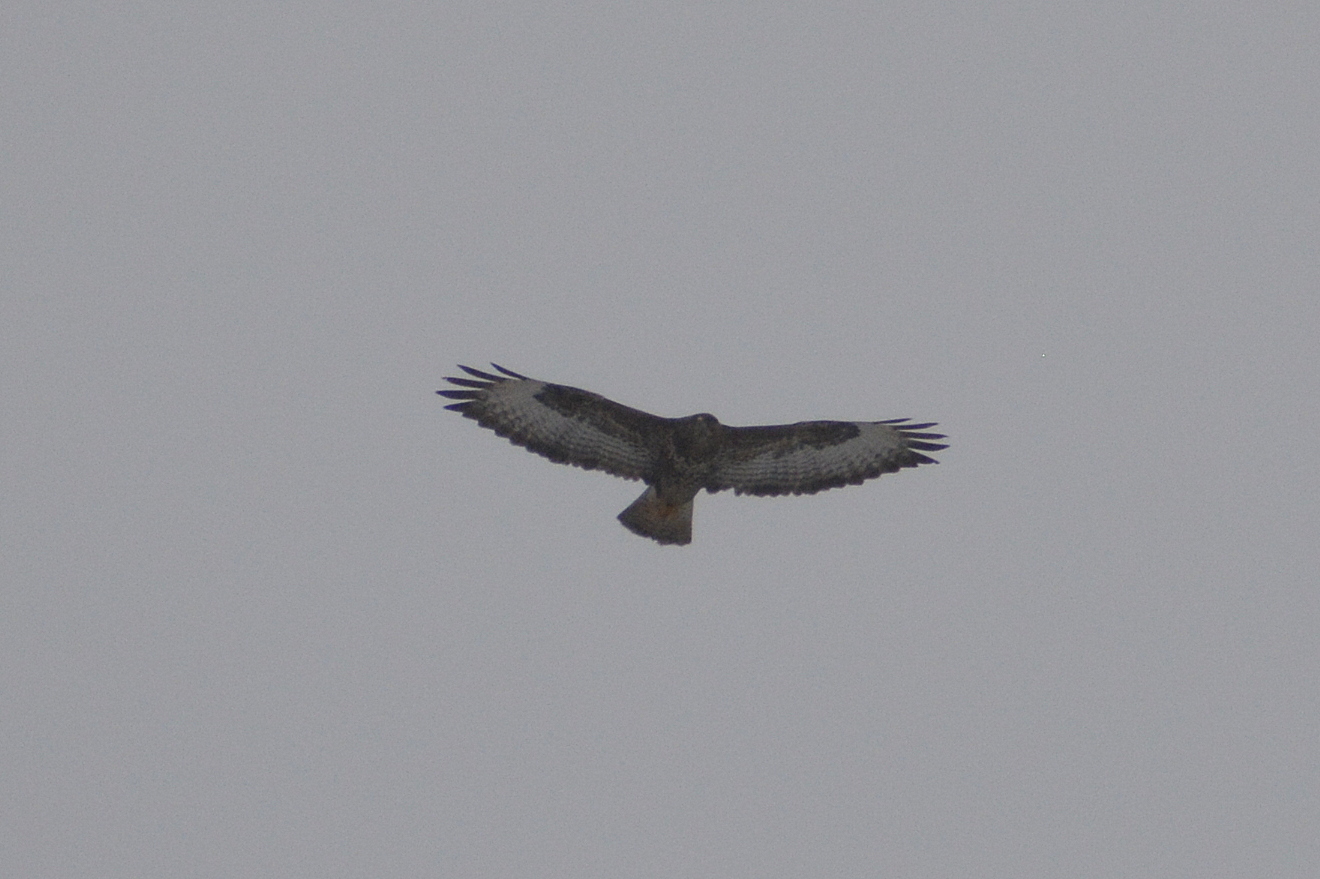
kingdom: Animalia
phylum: Chordata
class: Aves
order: Accipitriformes
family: Accipitridae
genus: Buteo
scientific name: Buteo buteo
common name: Common buzzard
